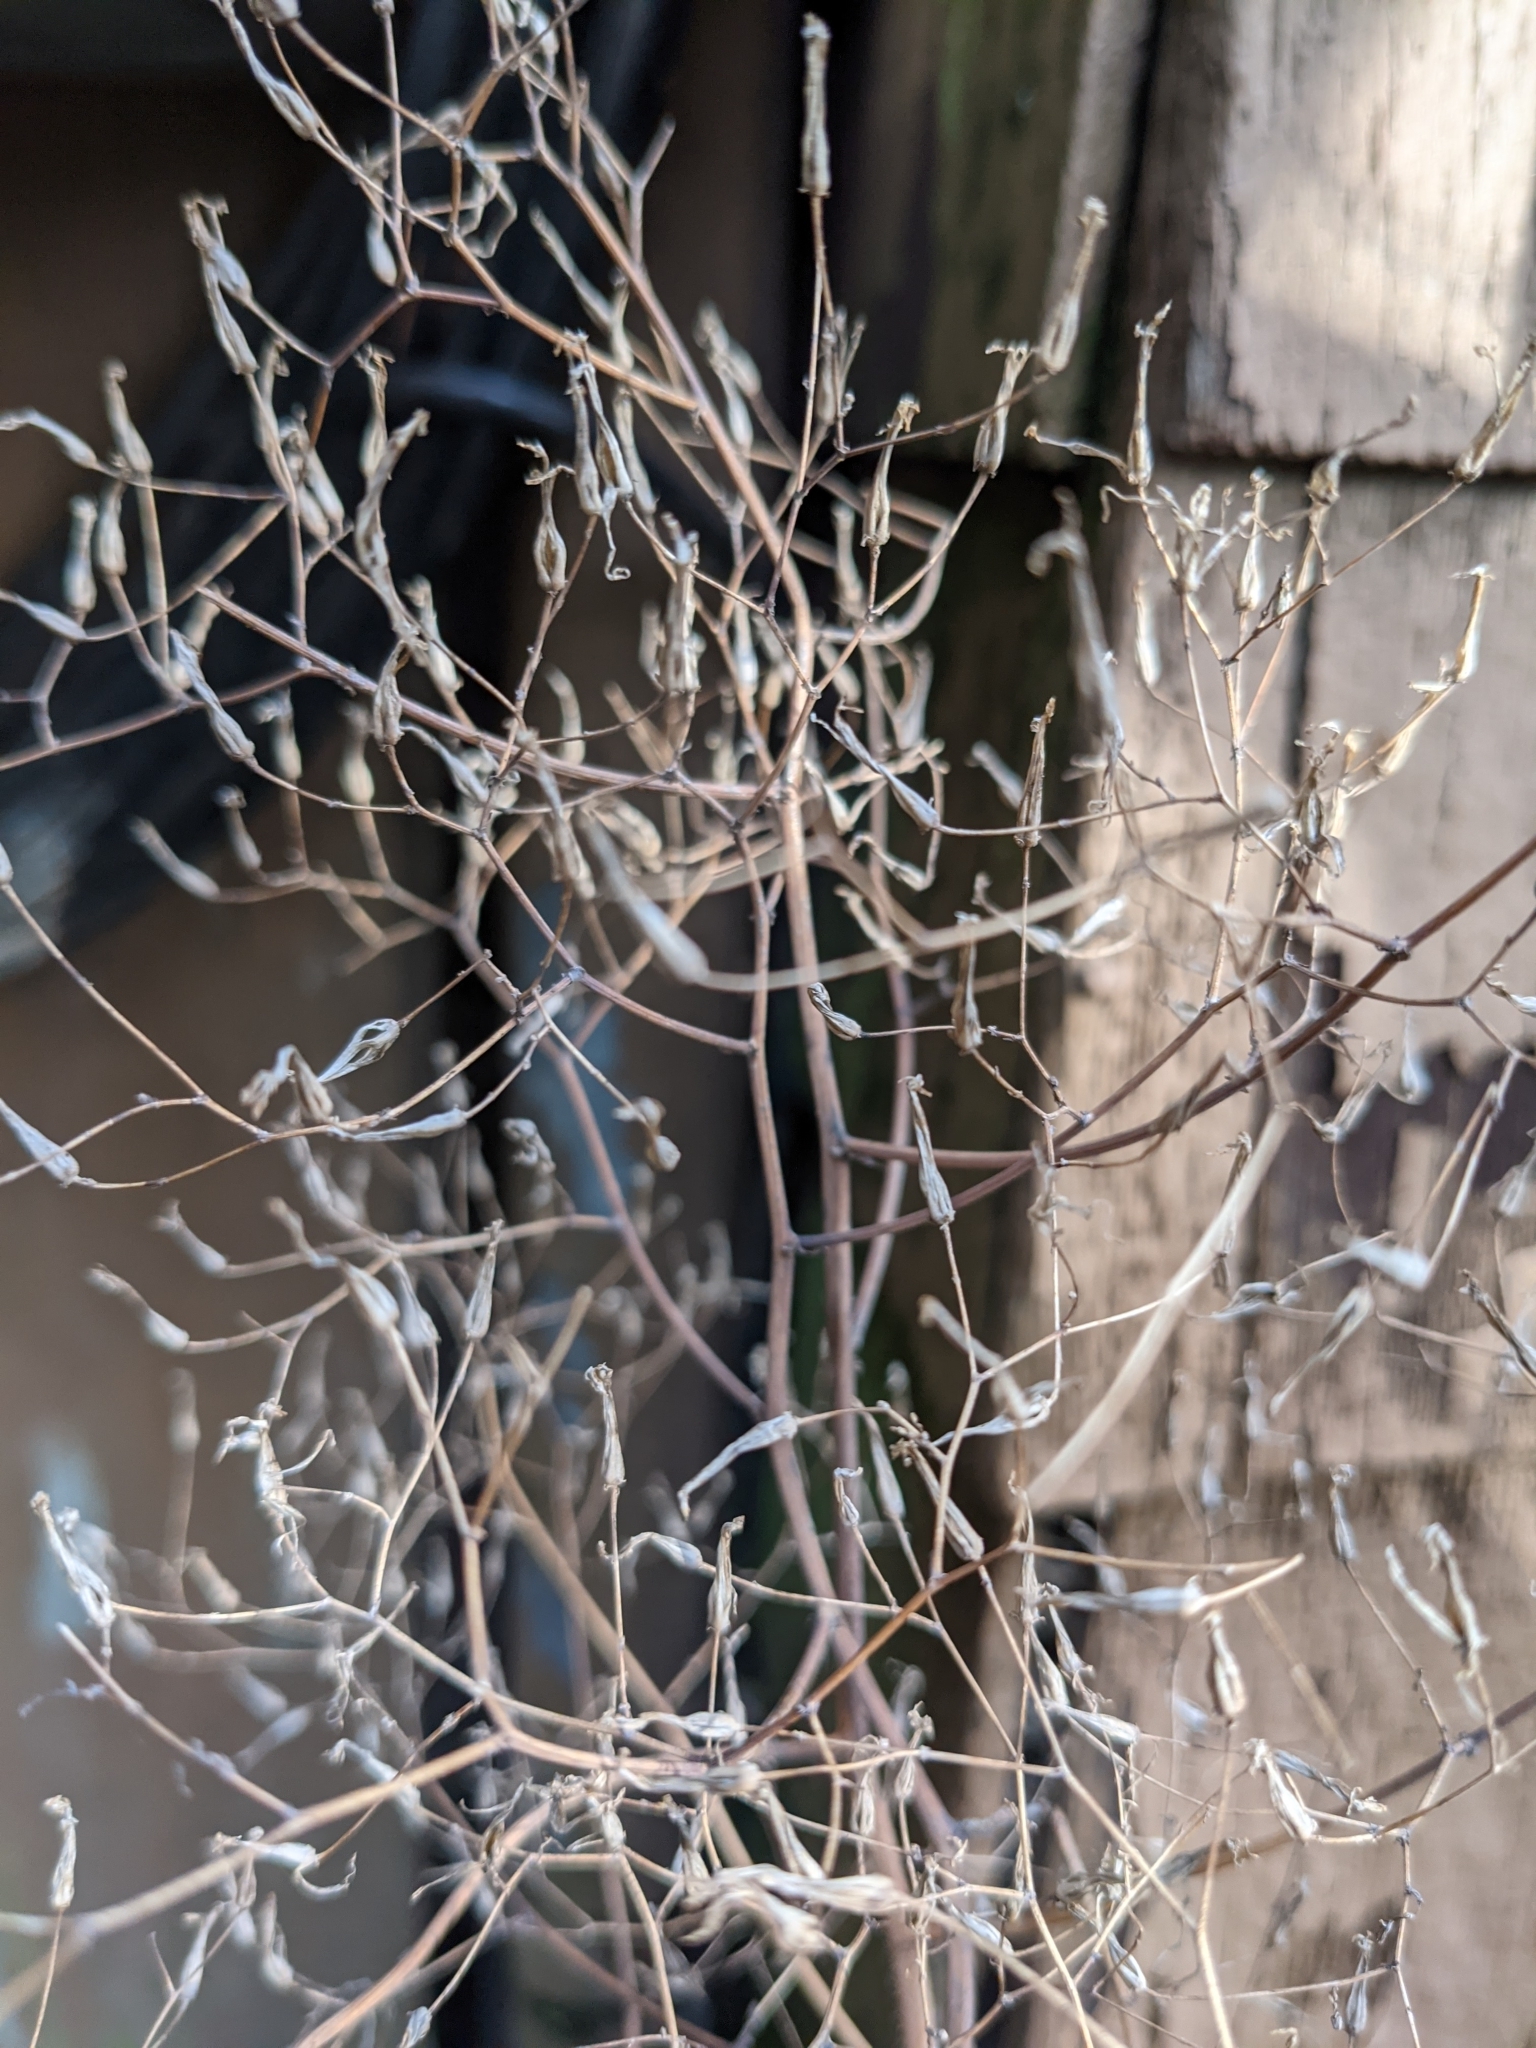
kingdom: Plantae
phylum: Tracheophyta
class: Magnoliopsida
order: Asterales
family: Asteraceae
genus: Mycelis
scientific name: Mycelis muralis
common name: Wall lettuce
